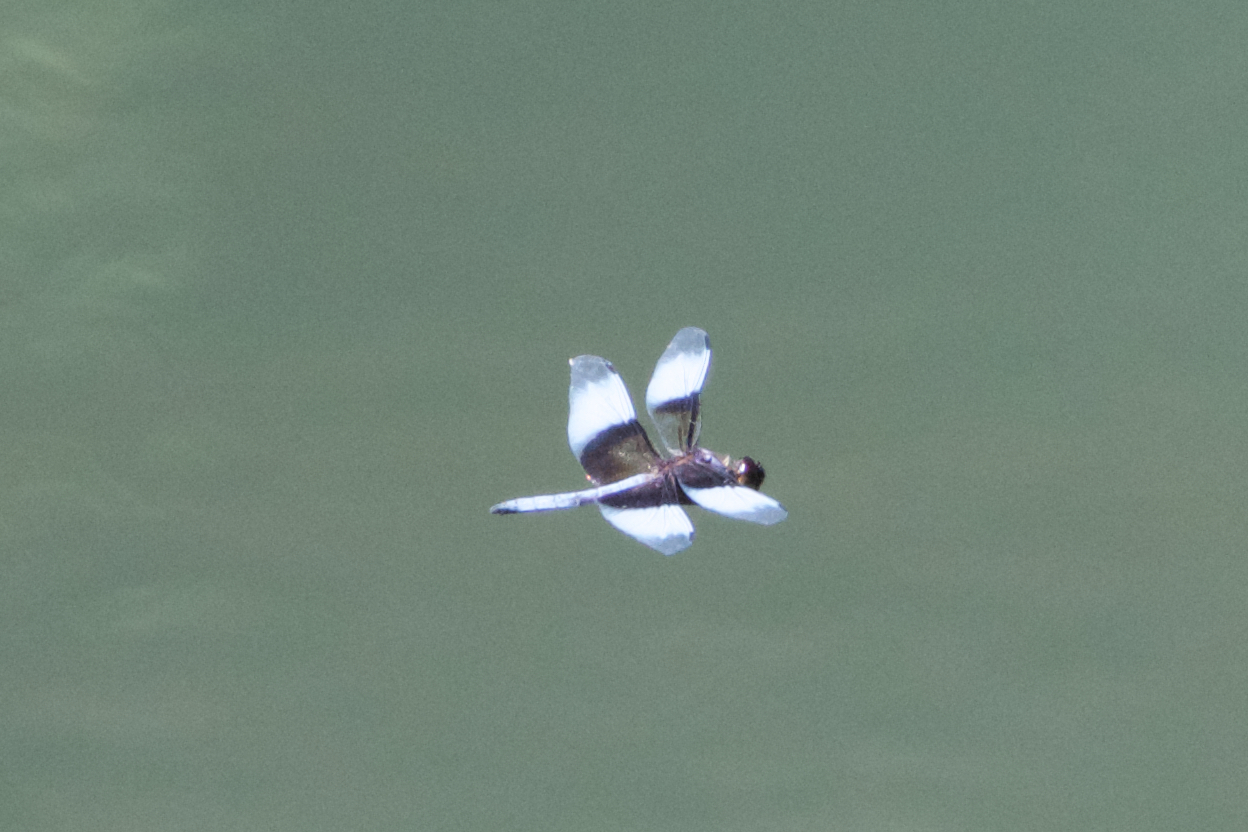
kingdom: Animalia
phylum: Arthropoda
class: Insecta
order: Odonata
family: Libellulidae
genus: Libellula
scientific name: Libellula luctuosa
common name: Widow skimmer
